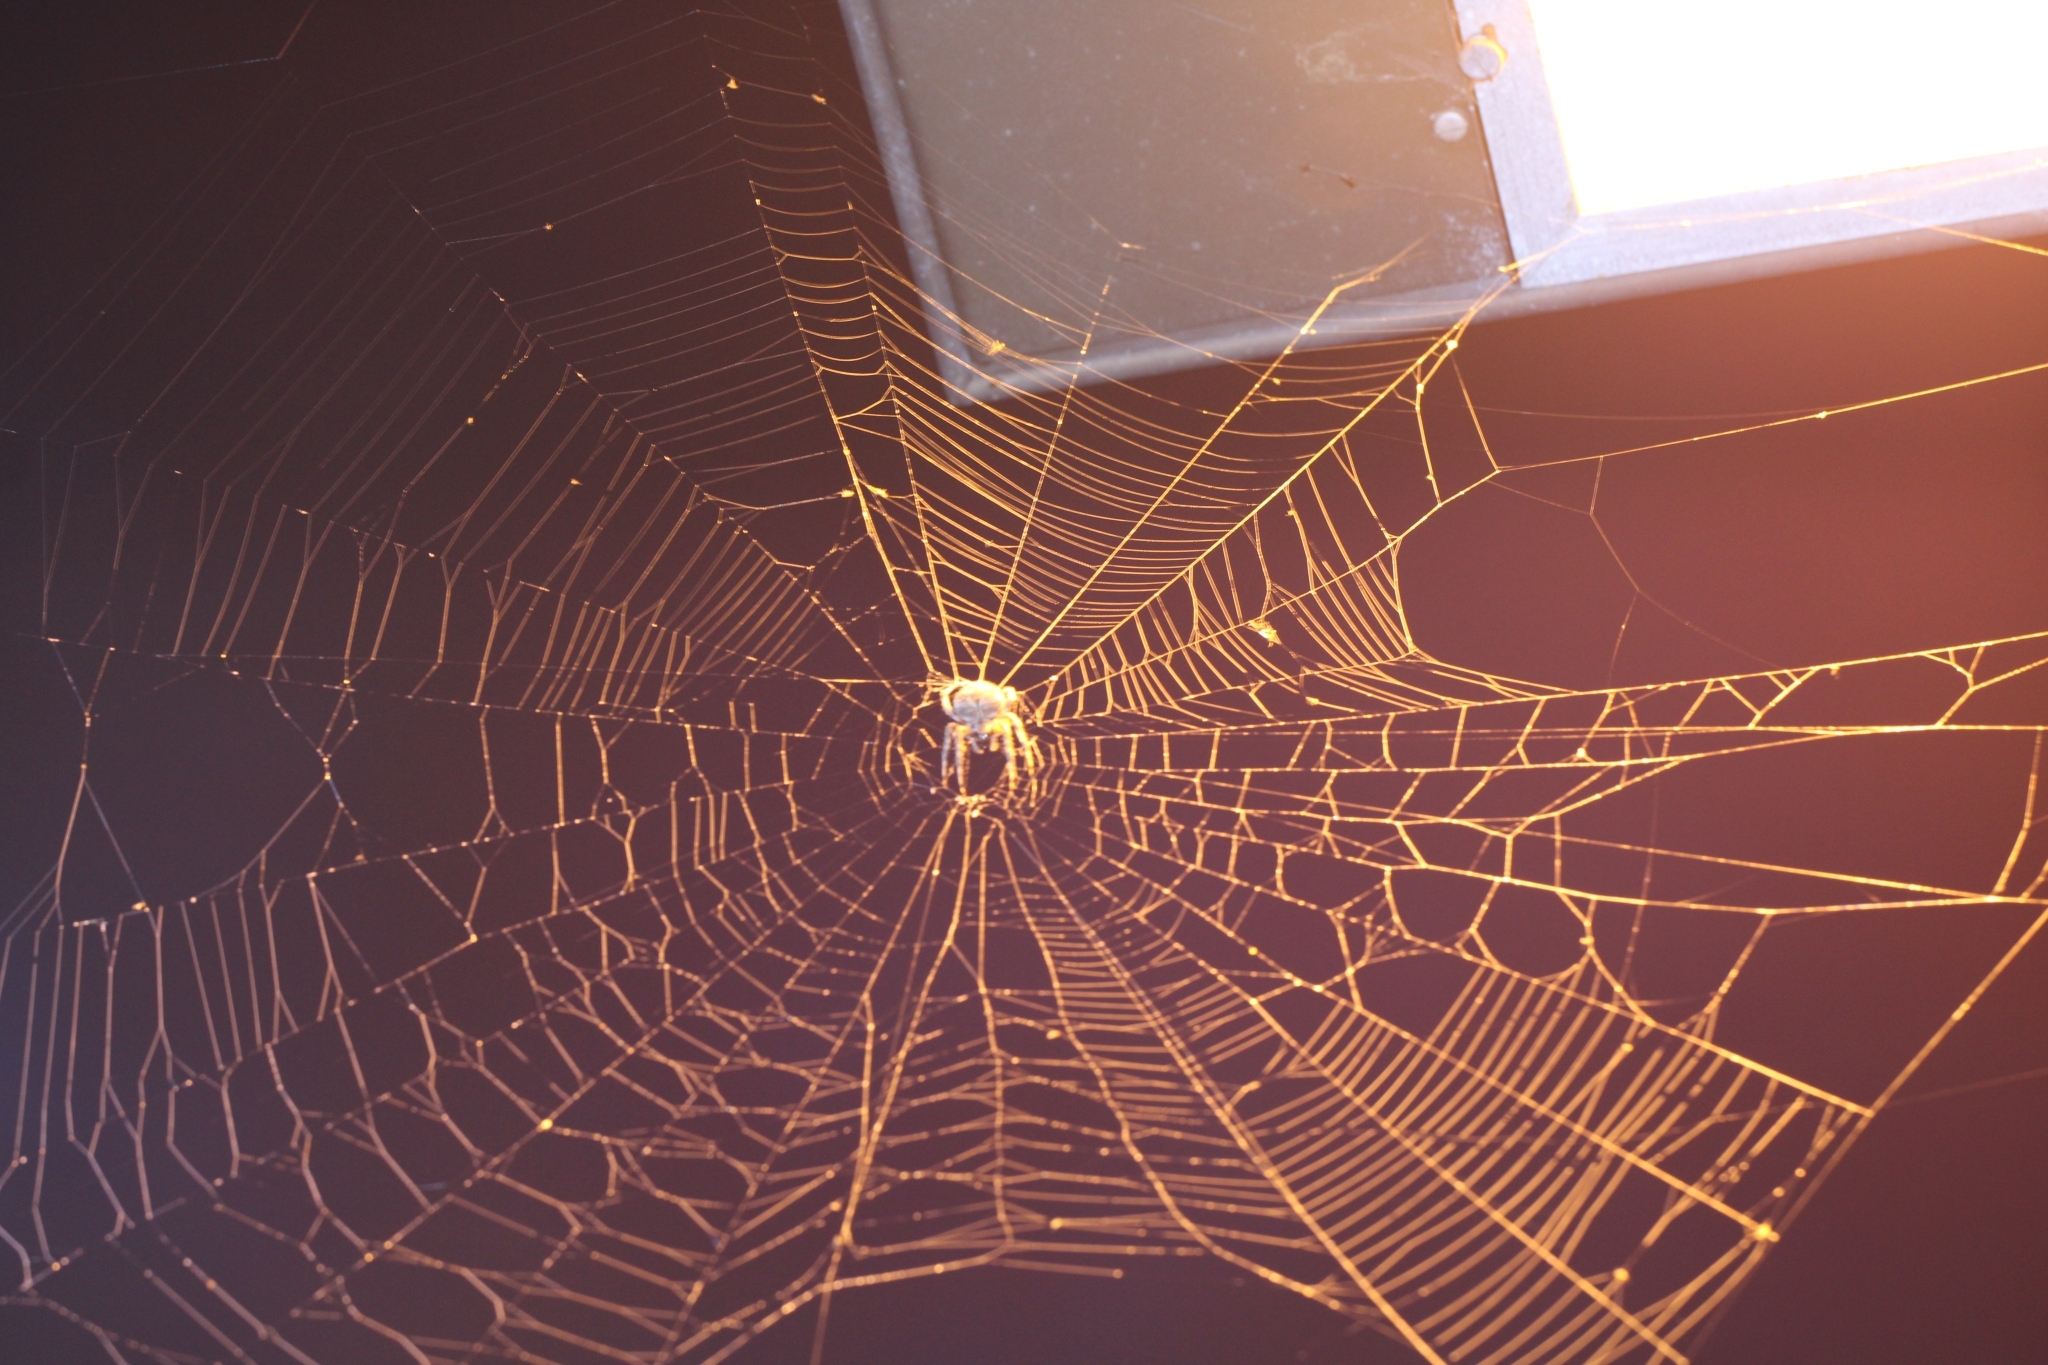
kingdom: Animalia
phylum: Arthropoda
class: Arachnida
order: Araneae
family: Araneidae
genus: Neoscona
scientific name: Neoscona crucifera
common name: Spotted orbweaver
